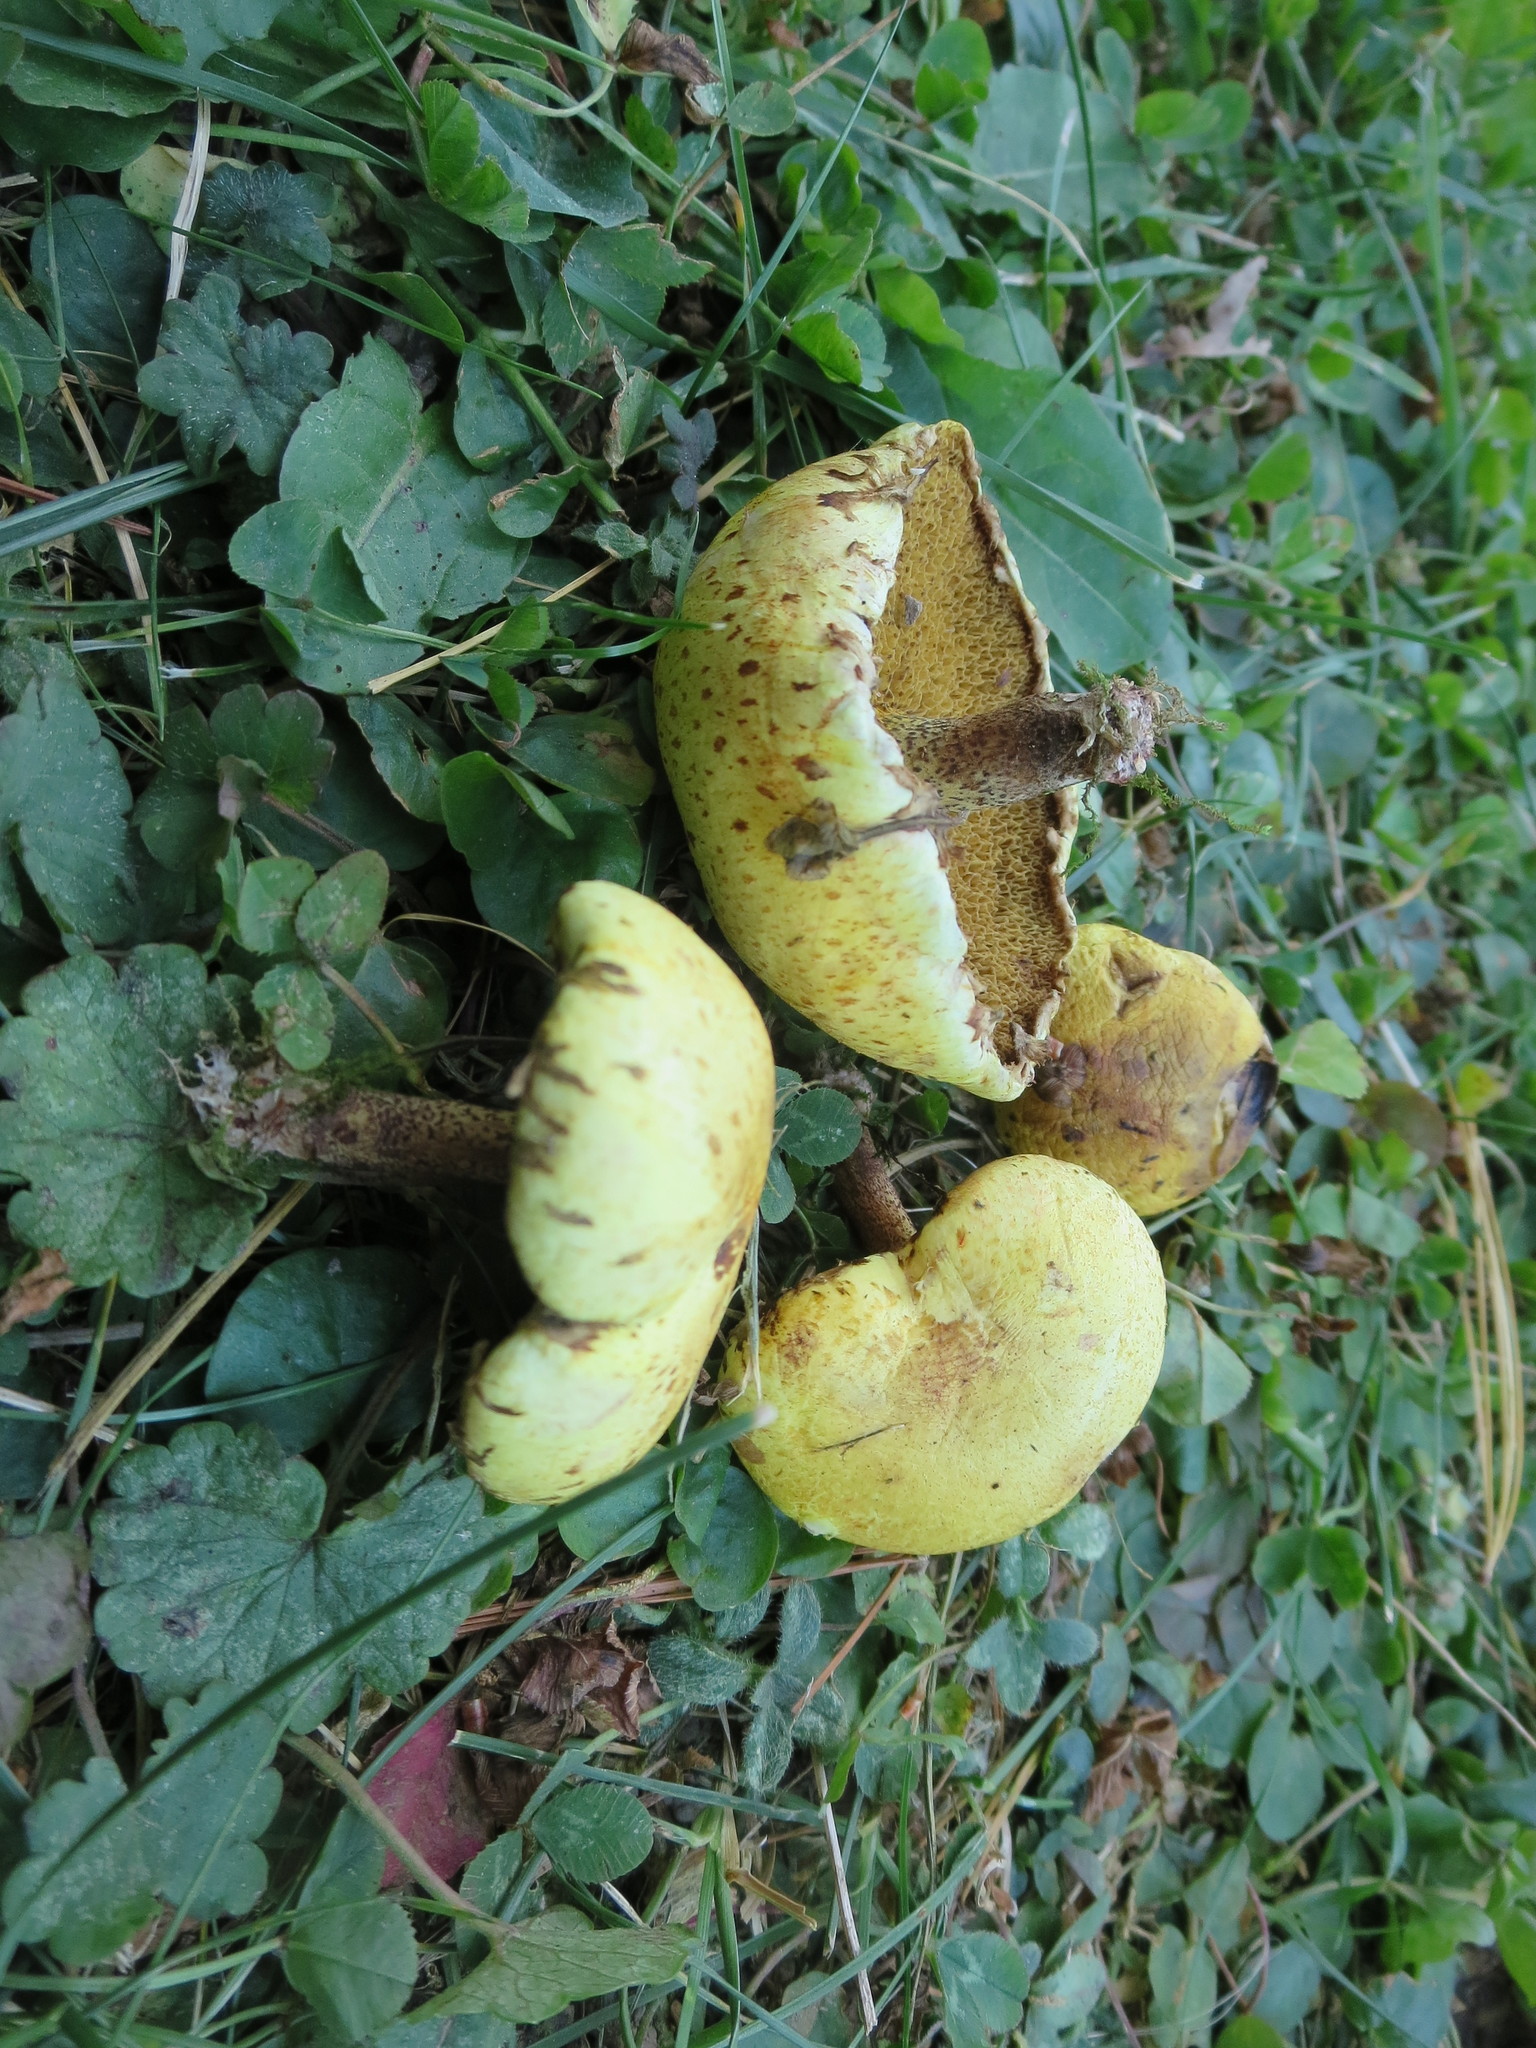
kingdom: Fungi
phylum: Basidiomycota
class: Agaricomycetes
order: Boletales
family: Suillaceae
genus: Suillus
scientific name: Suillus americanus
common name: Chicken fat mushroom
